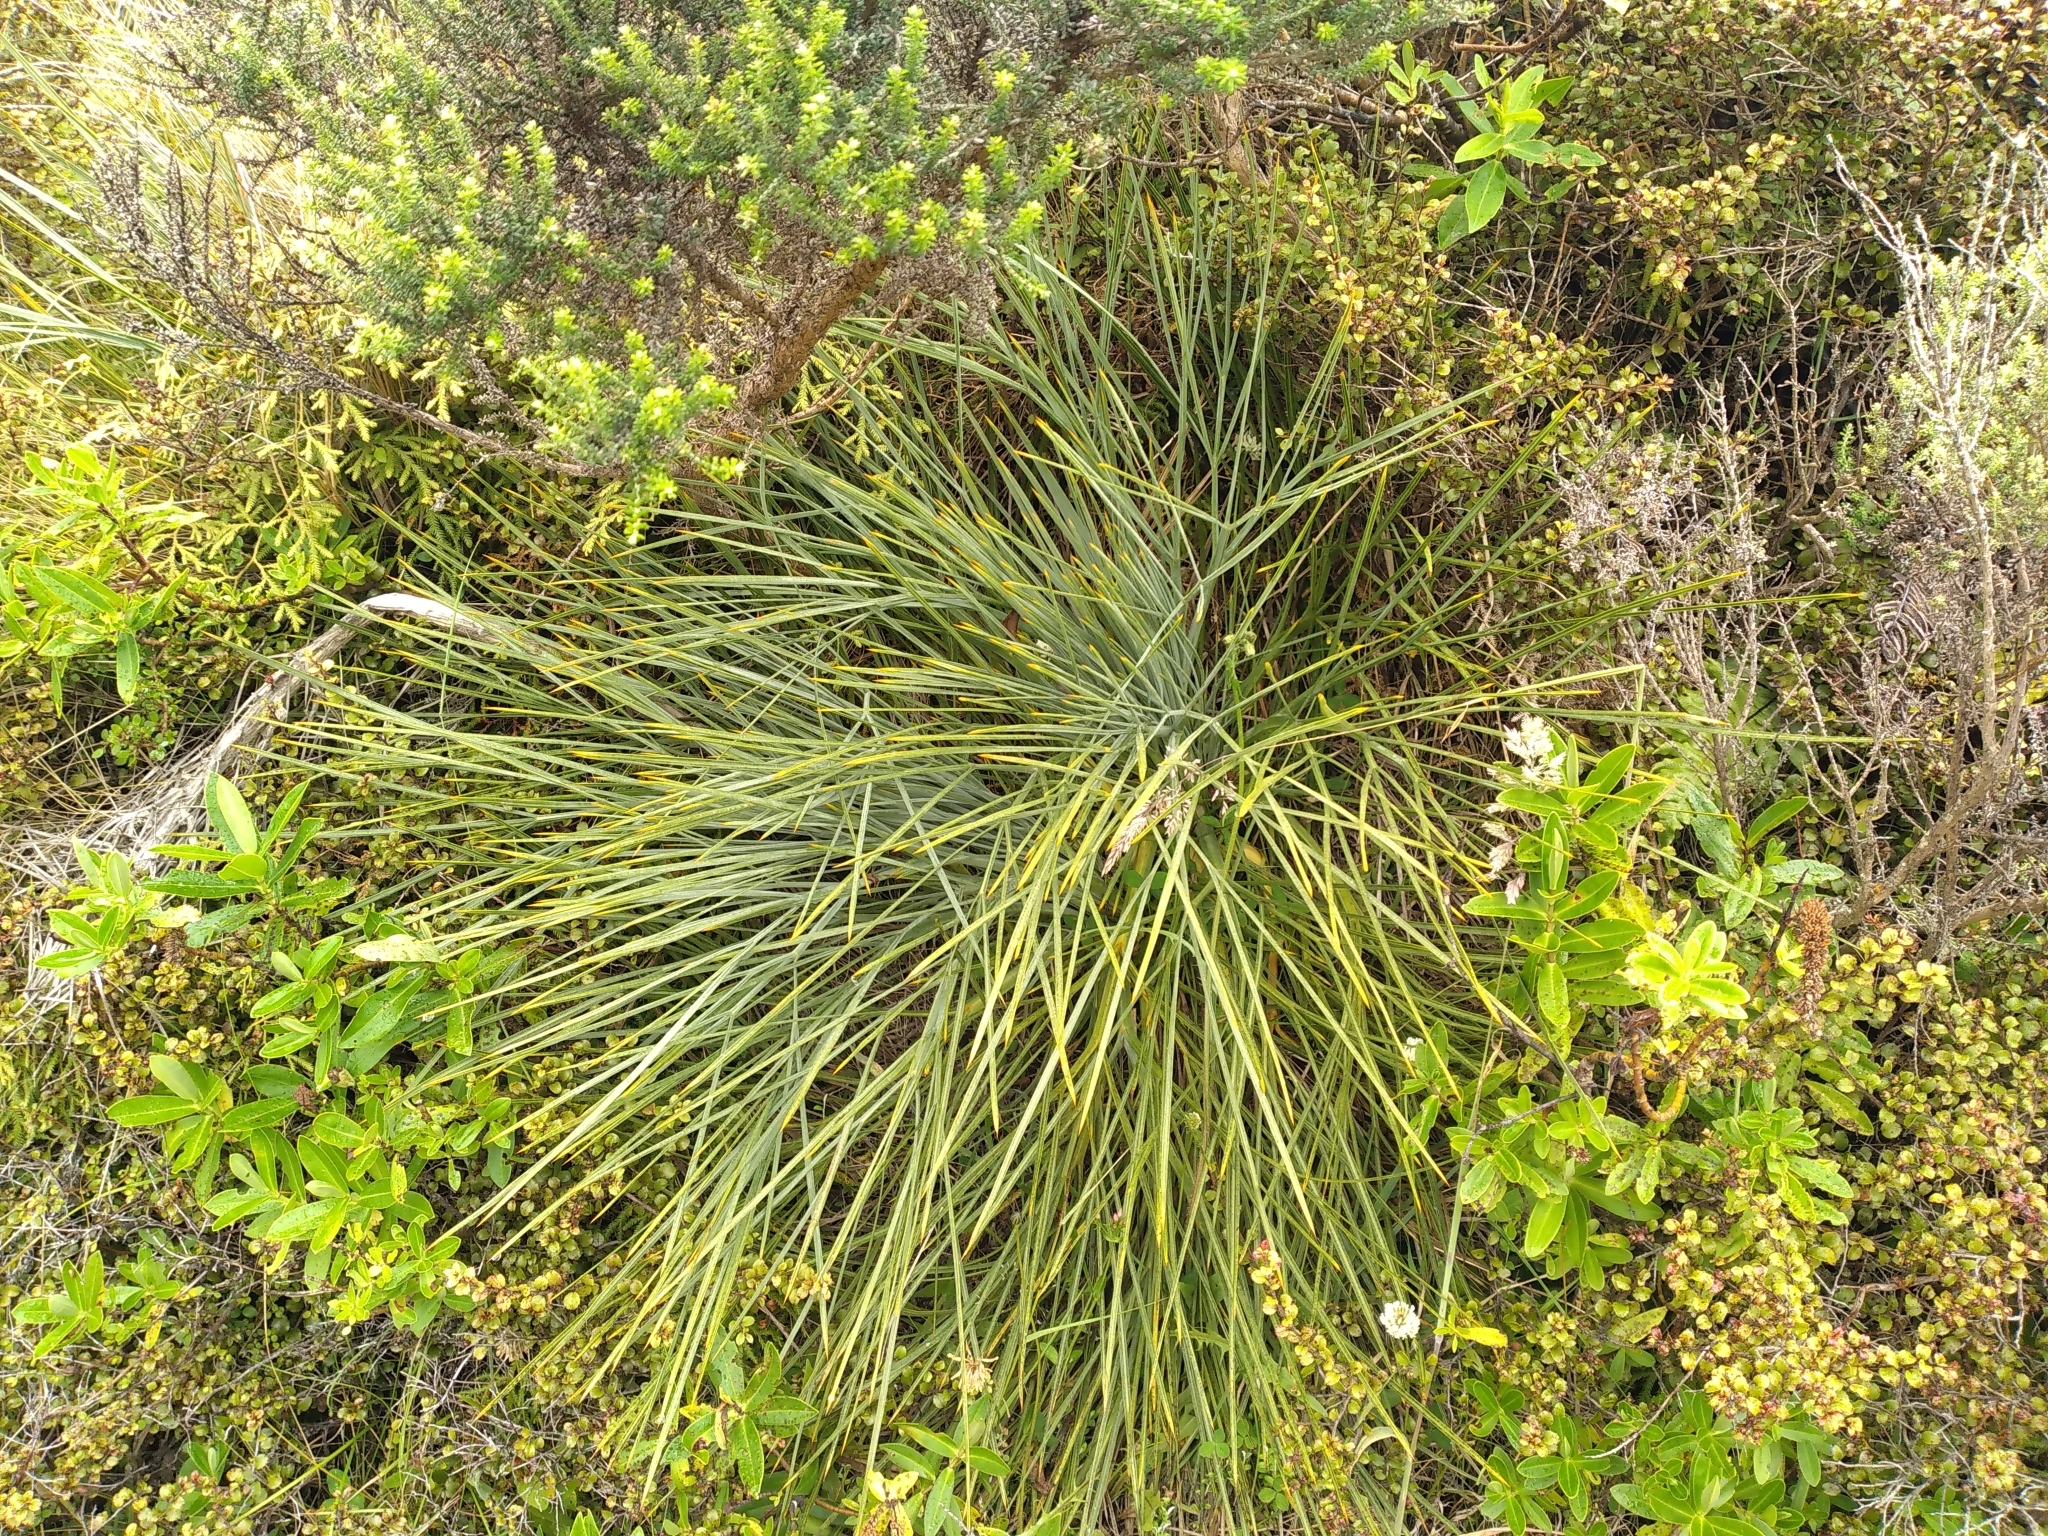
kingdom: Plantae
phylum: Tracheophyta
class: Magnoliopsida
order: Apiales
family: Apiaceae
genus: Aciphylla
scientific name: Aciphylla squarrosa
